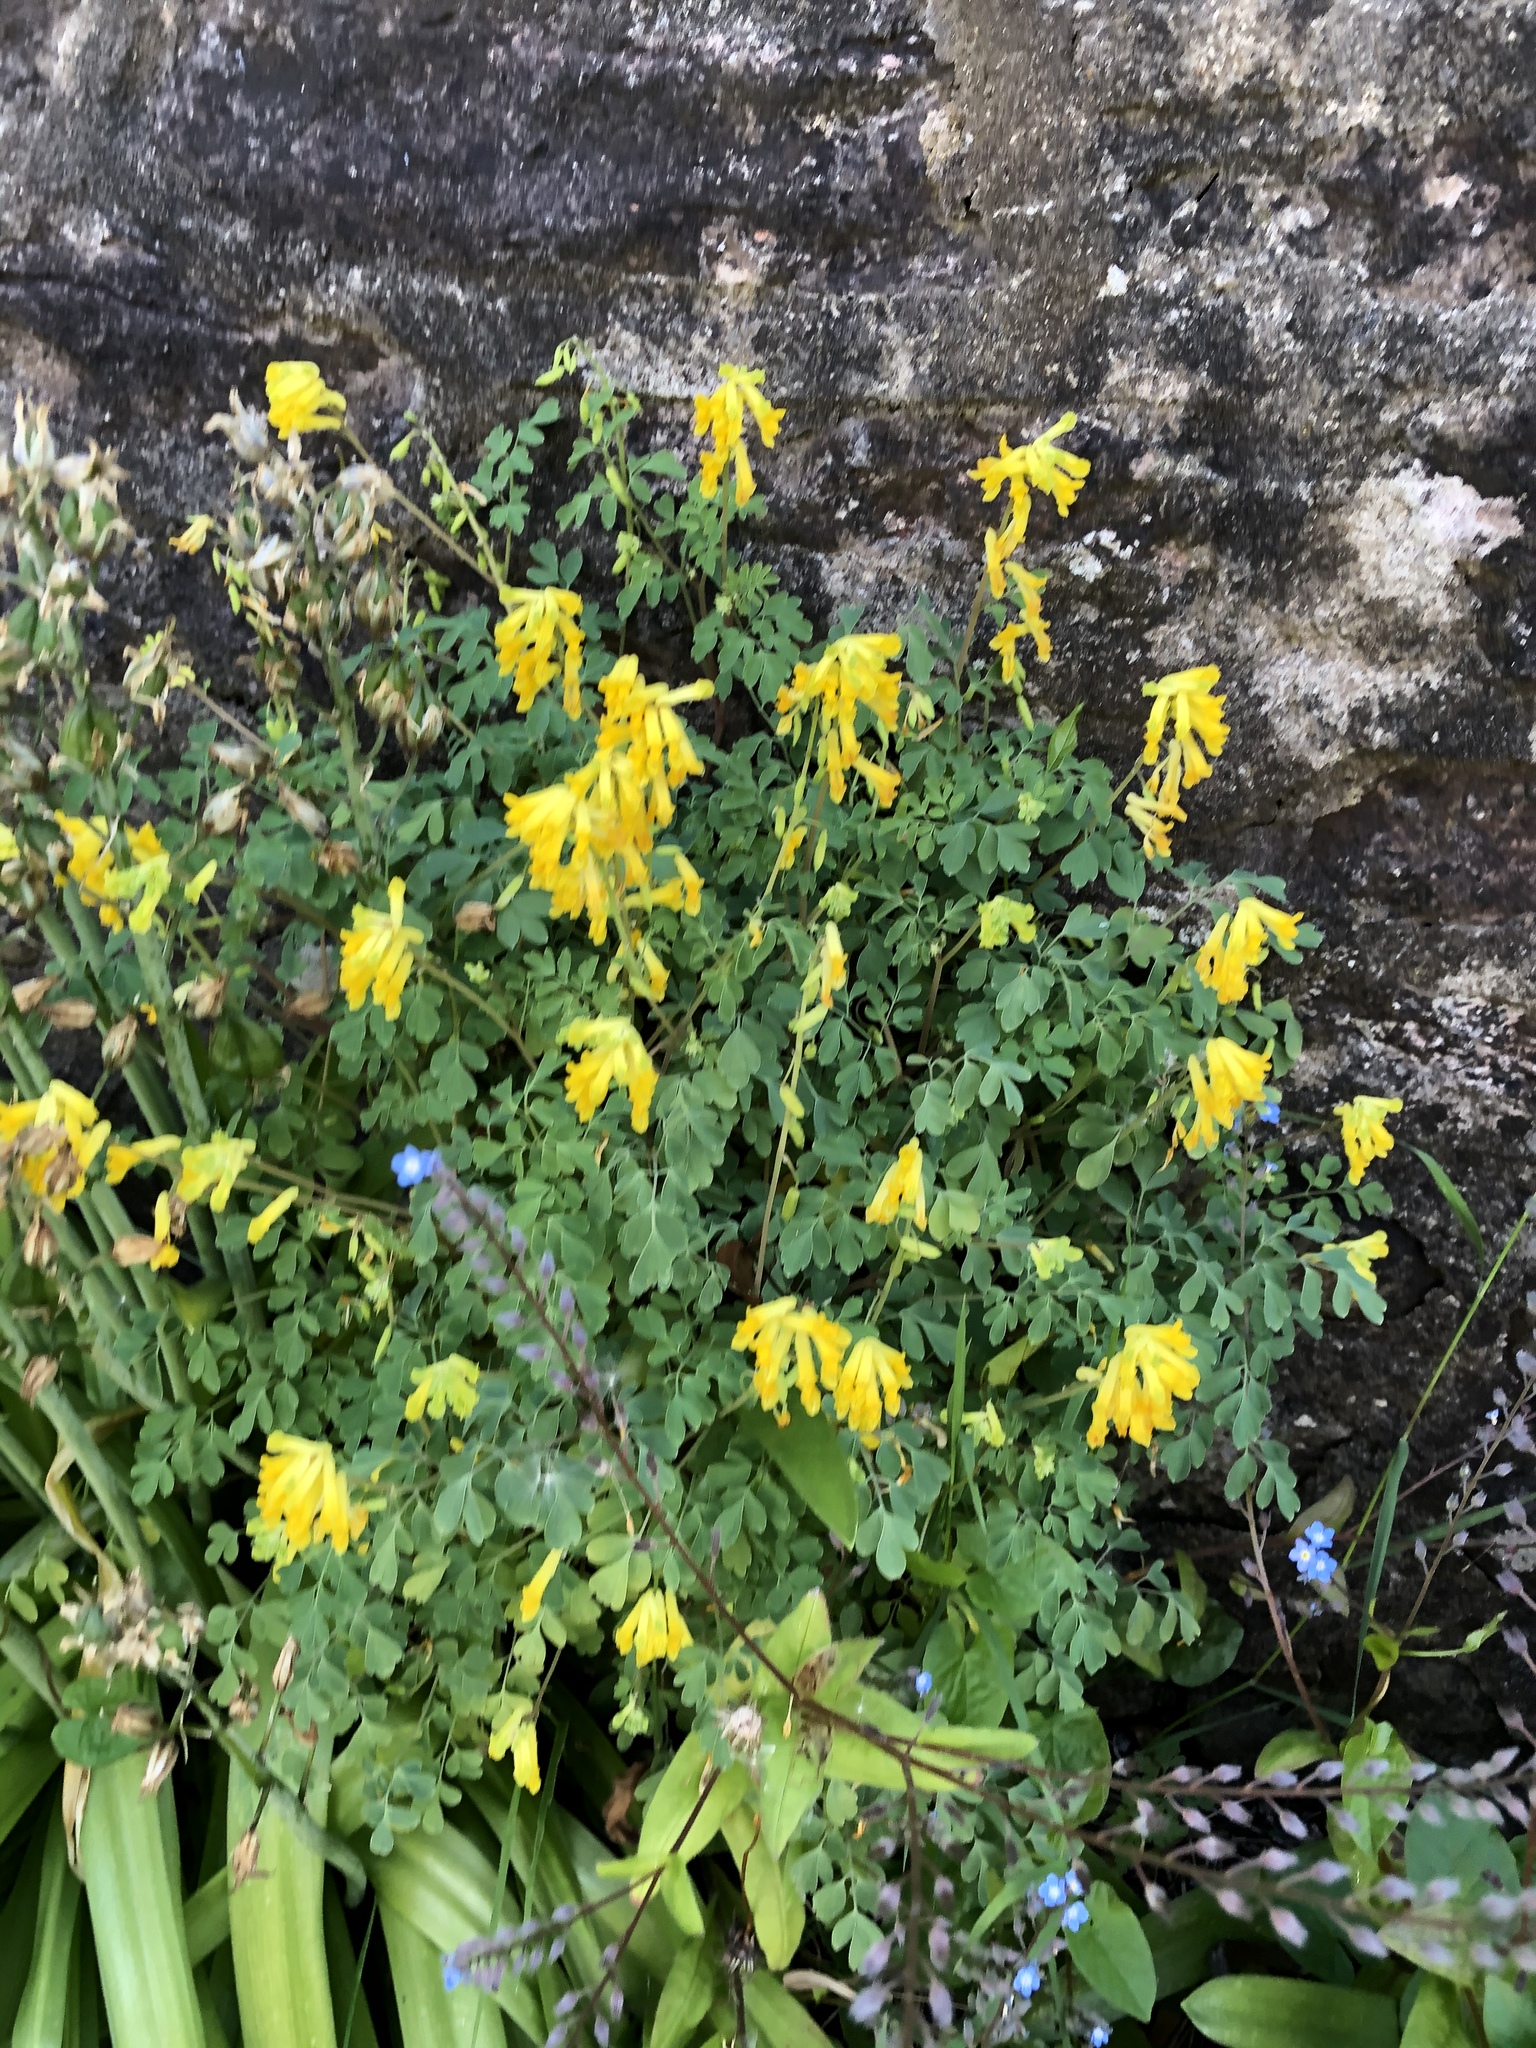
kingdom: Plantae
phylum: Tracheophyta
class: Magnoliopsida
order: Ranunculales
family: Papaveraceae
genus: Pseudofumaria
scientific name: Pseudofumaria lutea
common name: Yellow corydalis
